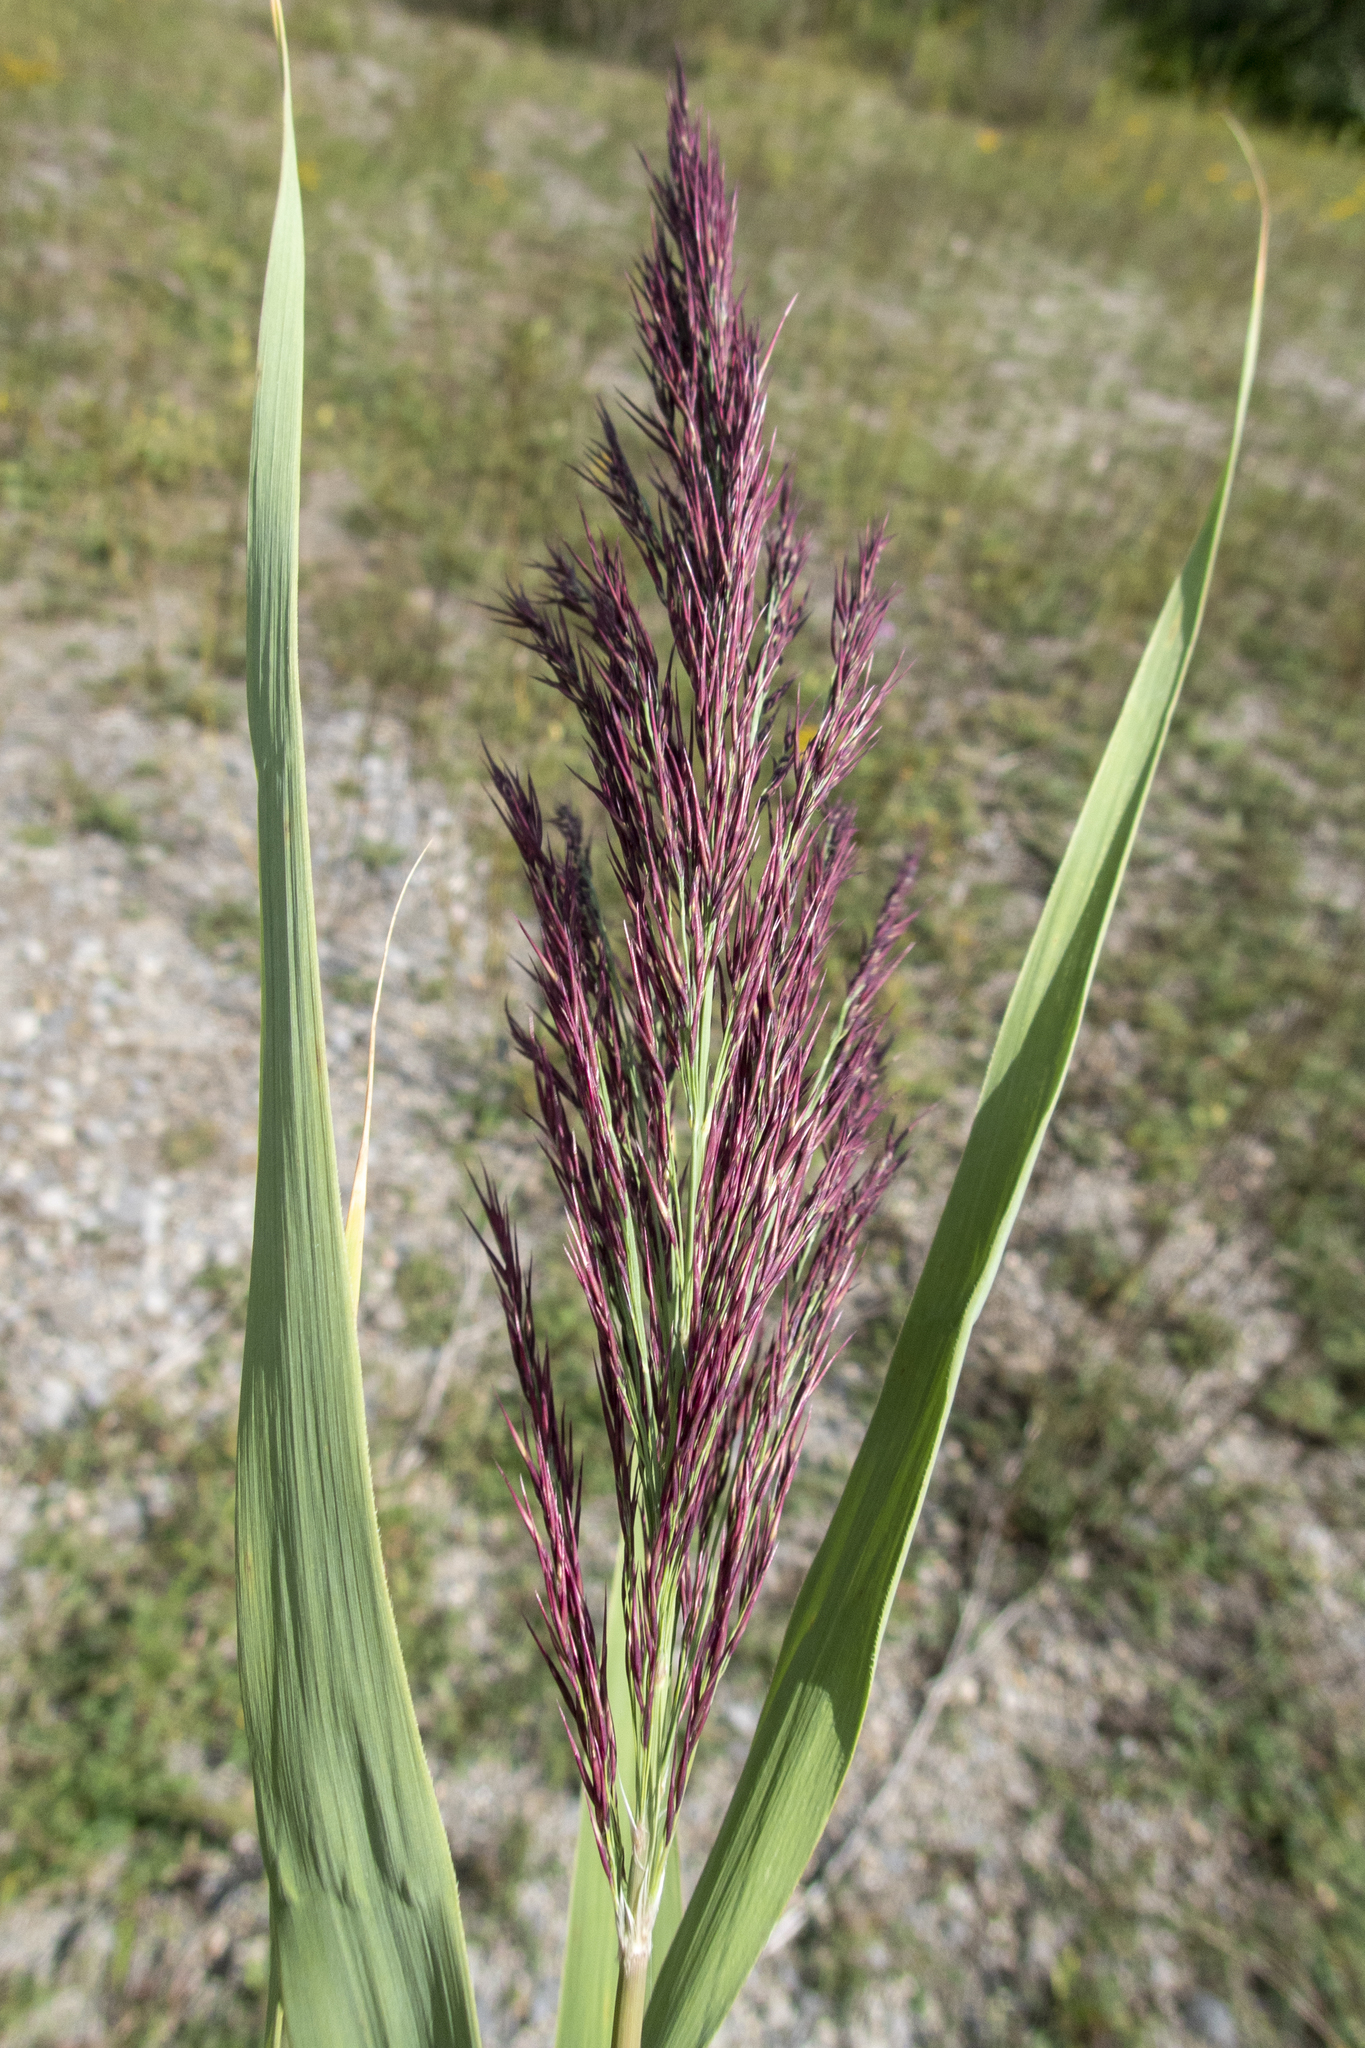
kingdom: Plantae
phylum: Tracheophyta
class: Liliopsida
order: Poales
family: Poaceae
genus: Phragmites
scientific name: Phragmites australis
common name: Common reed
